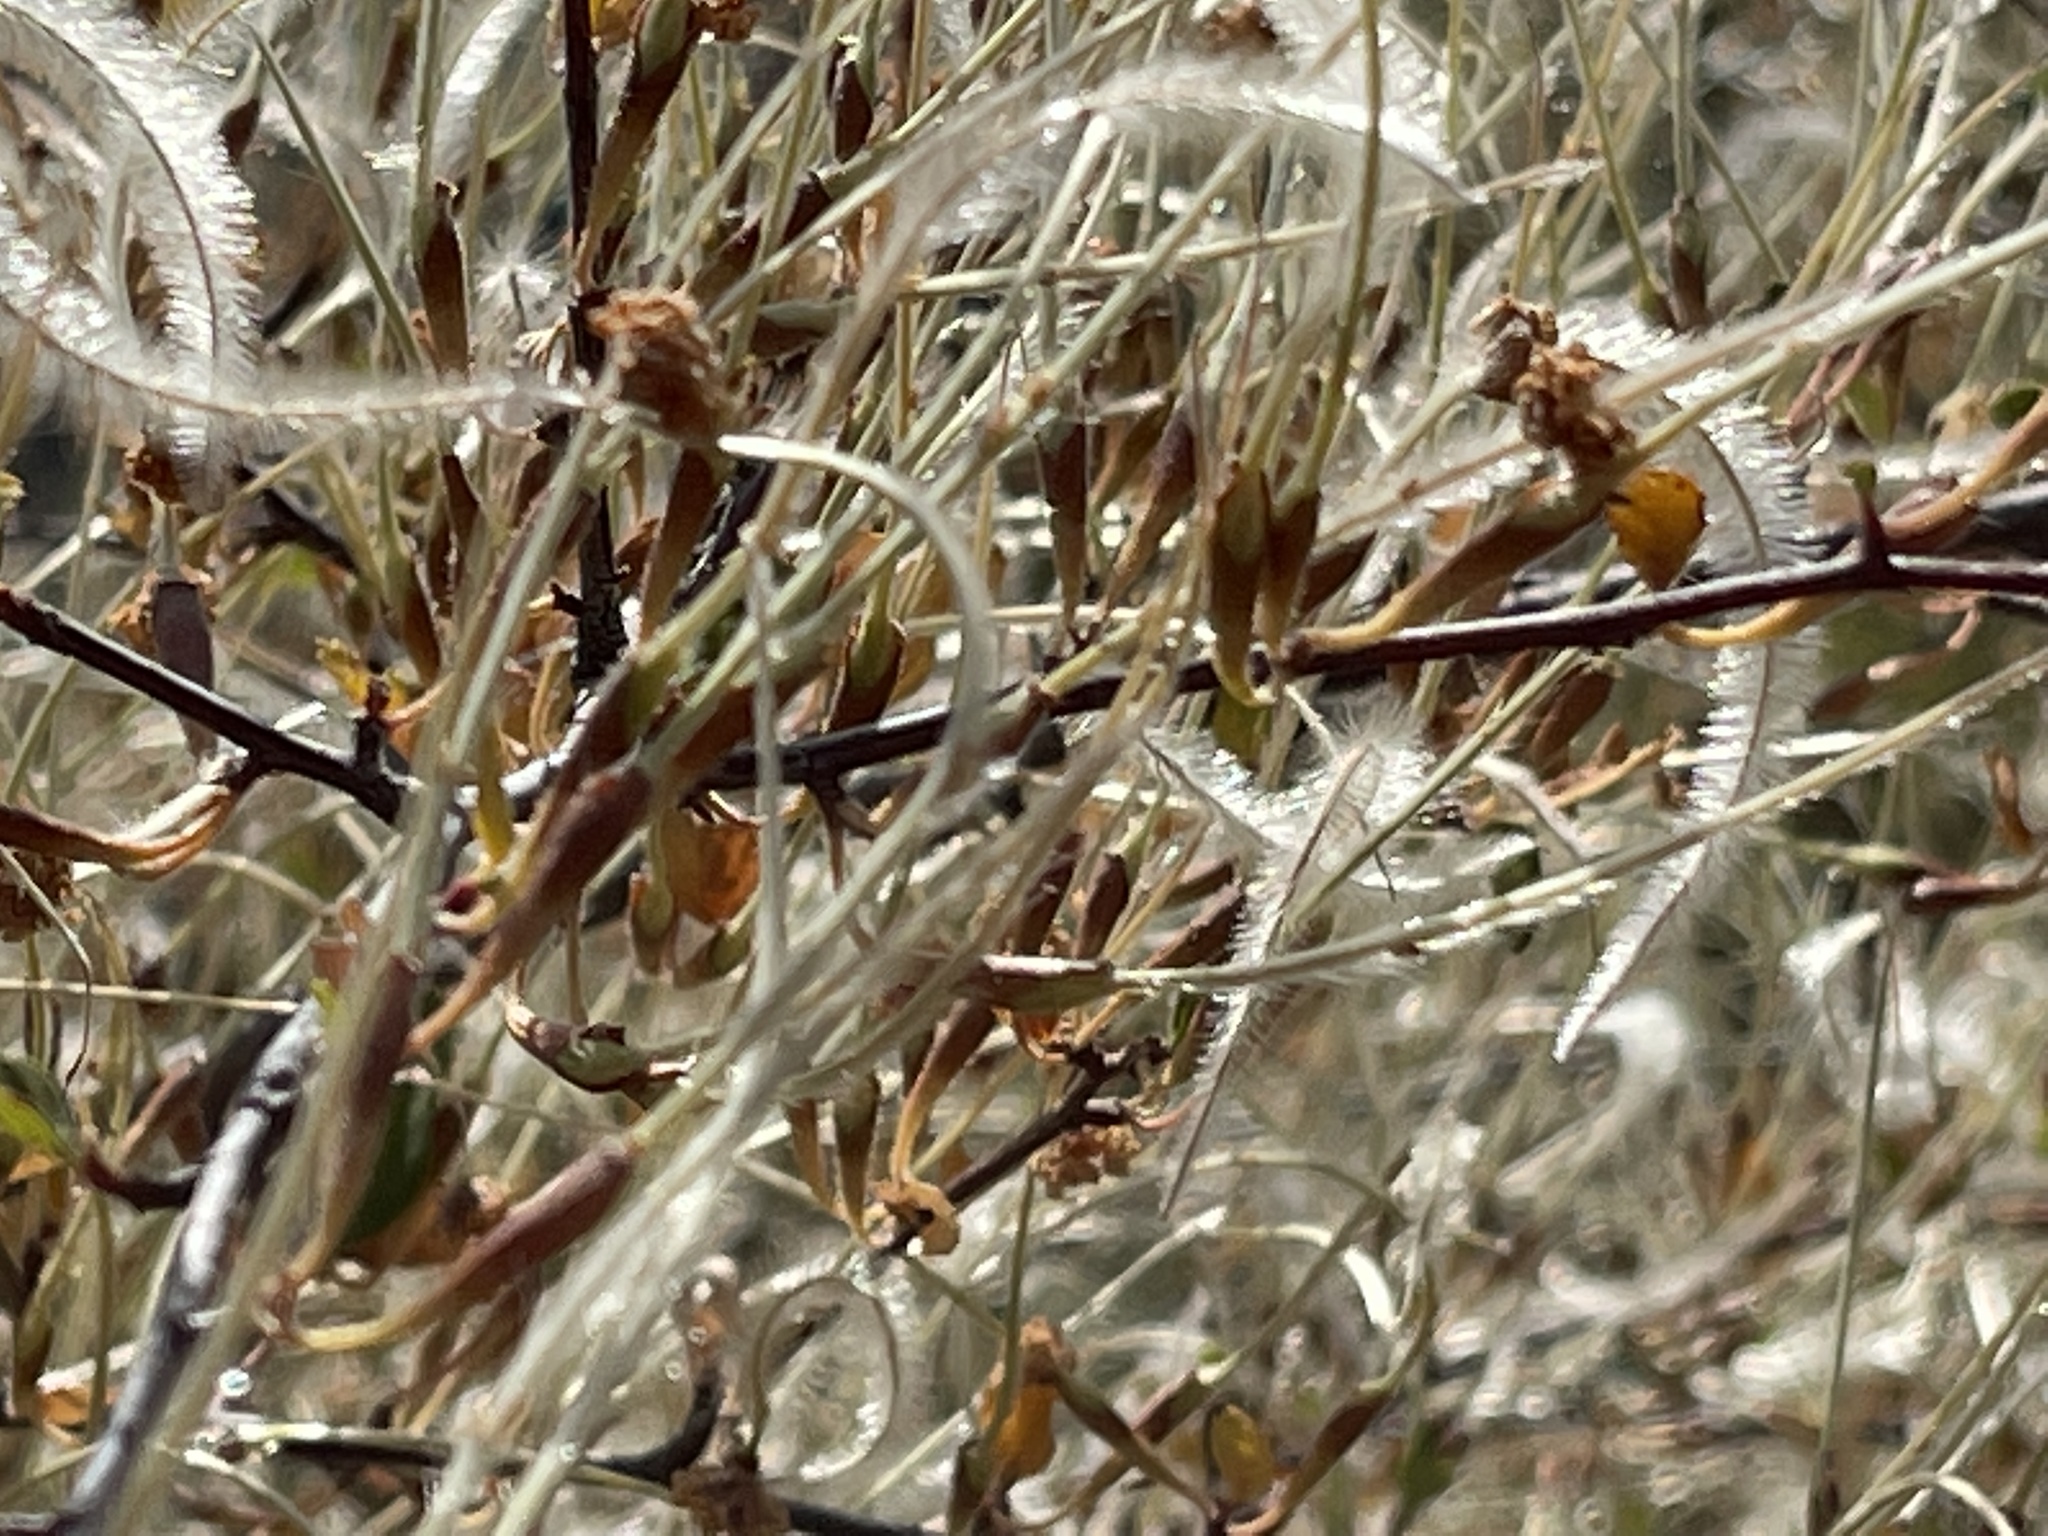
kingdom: Plantae
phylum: Tracheophyta
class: Magnoliopsida
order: Rosales
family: Rosaceae
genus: Cercocarpus
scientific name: Cercocarpus betuloides
